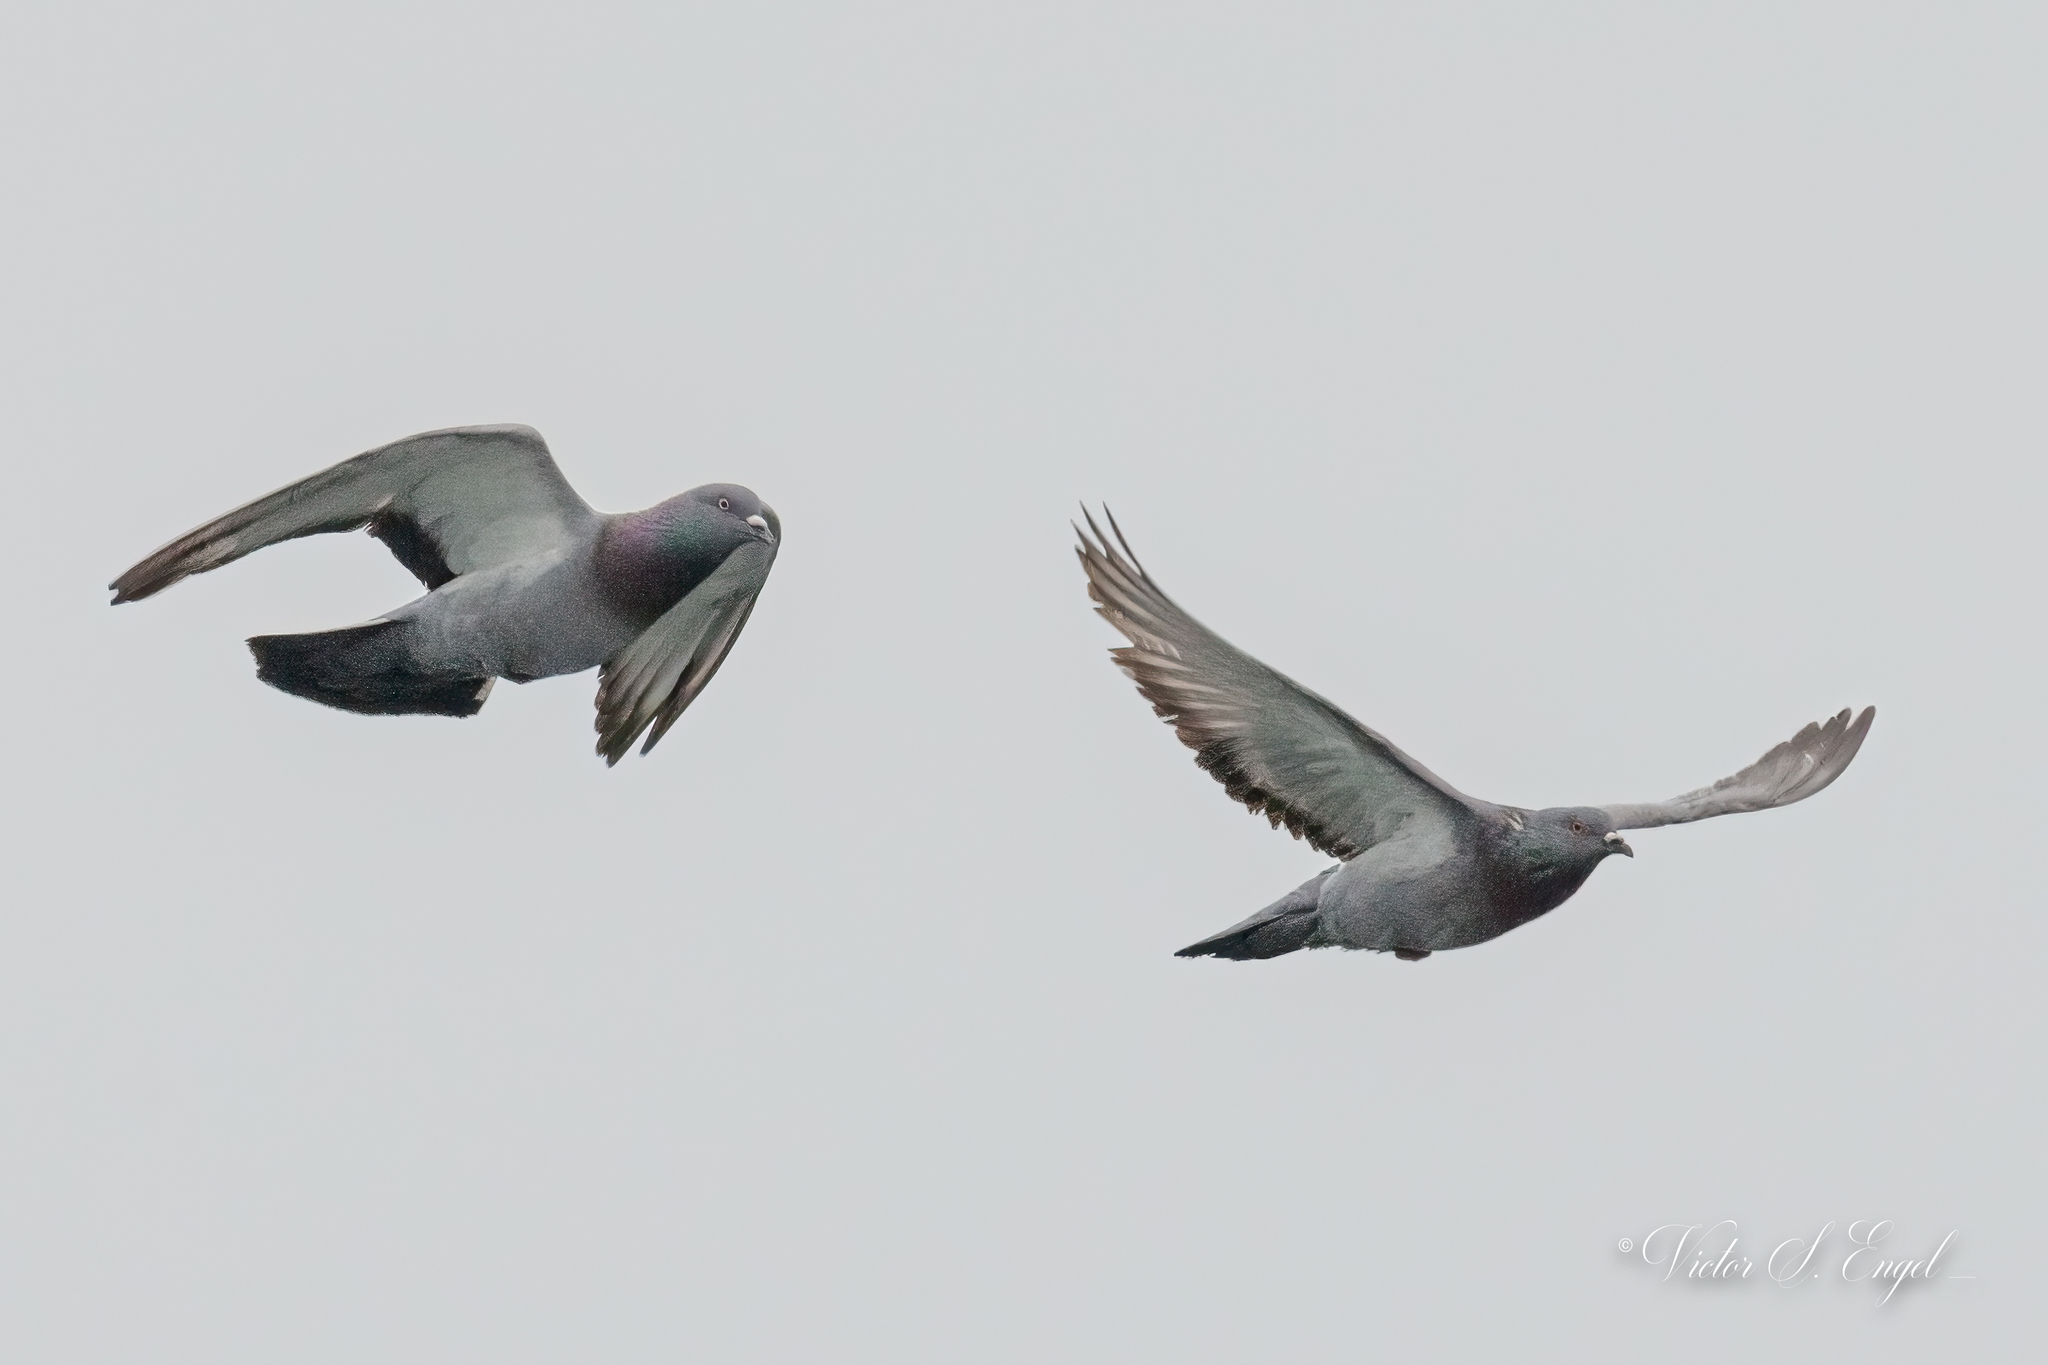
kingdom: Animalia
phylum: Chordata
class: Aves
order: Columbiformes
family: Columbidae
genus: Columba
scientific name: Columba livia
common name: Rock pigeon
